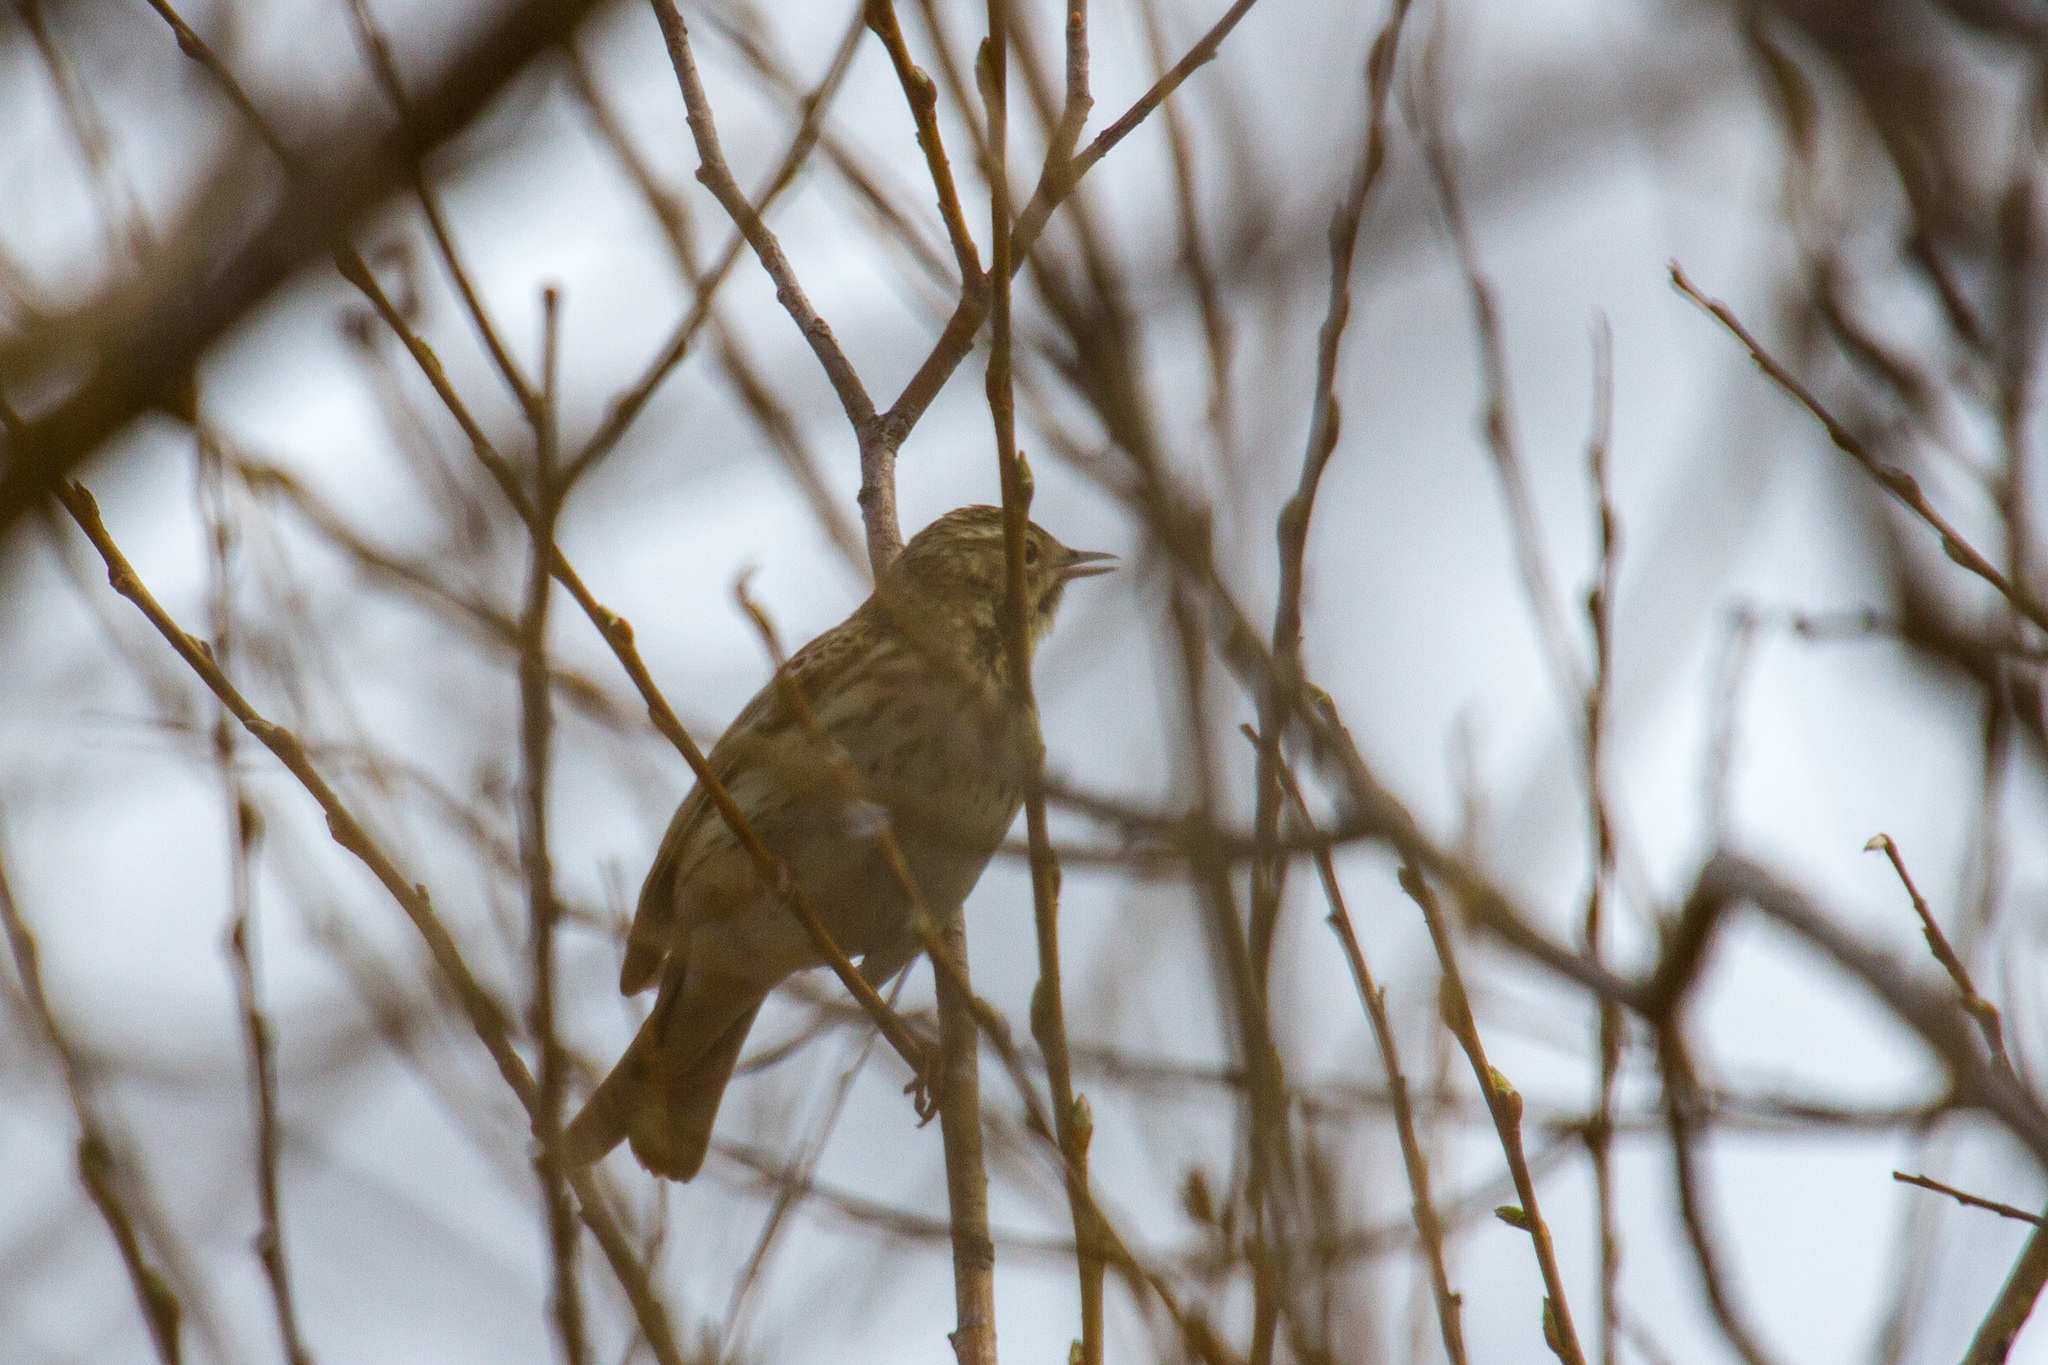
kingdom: Animalia
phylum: Chordata
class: Aves
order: Passeriformes
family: Motacillidae
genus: Anthus
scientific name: Anthus trivialis
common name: Tree pipit
